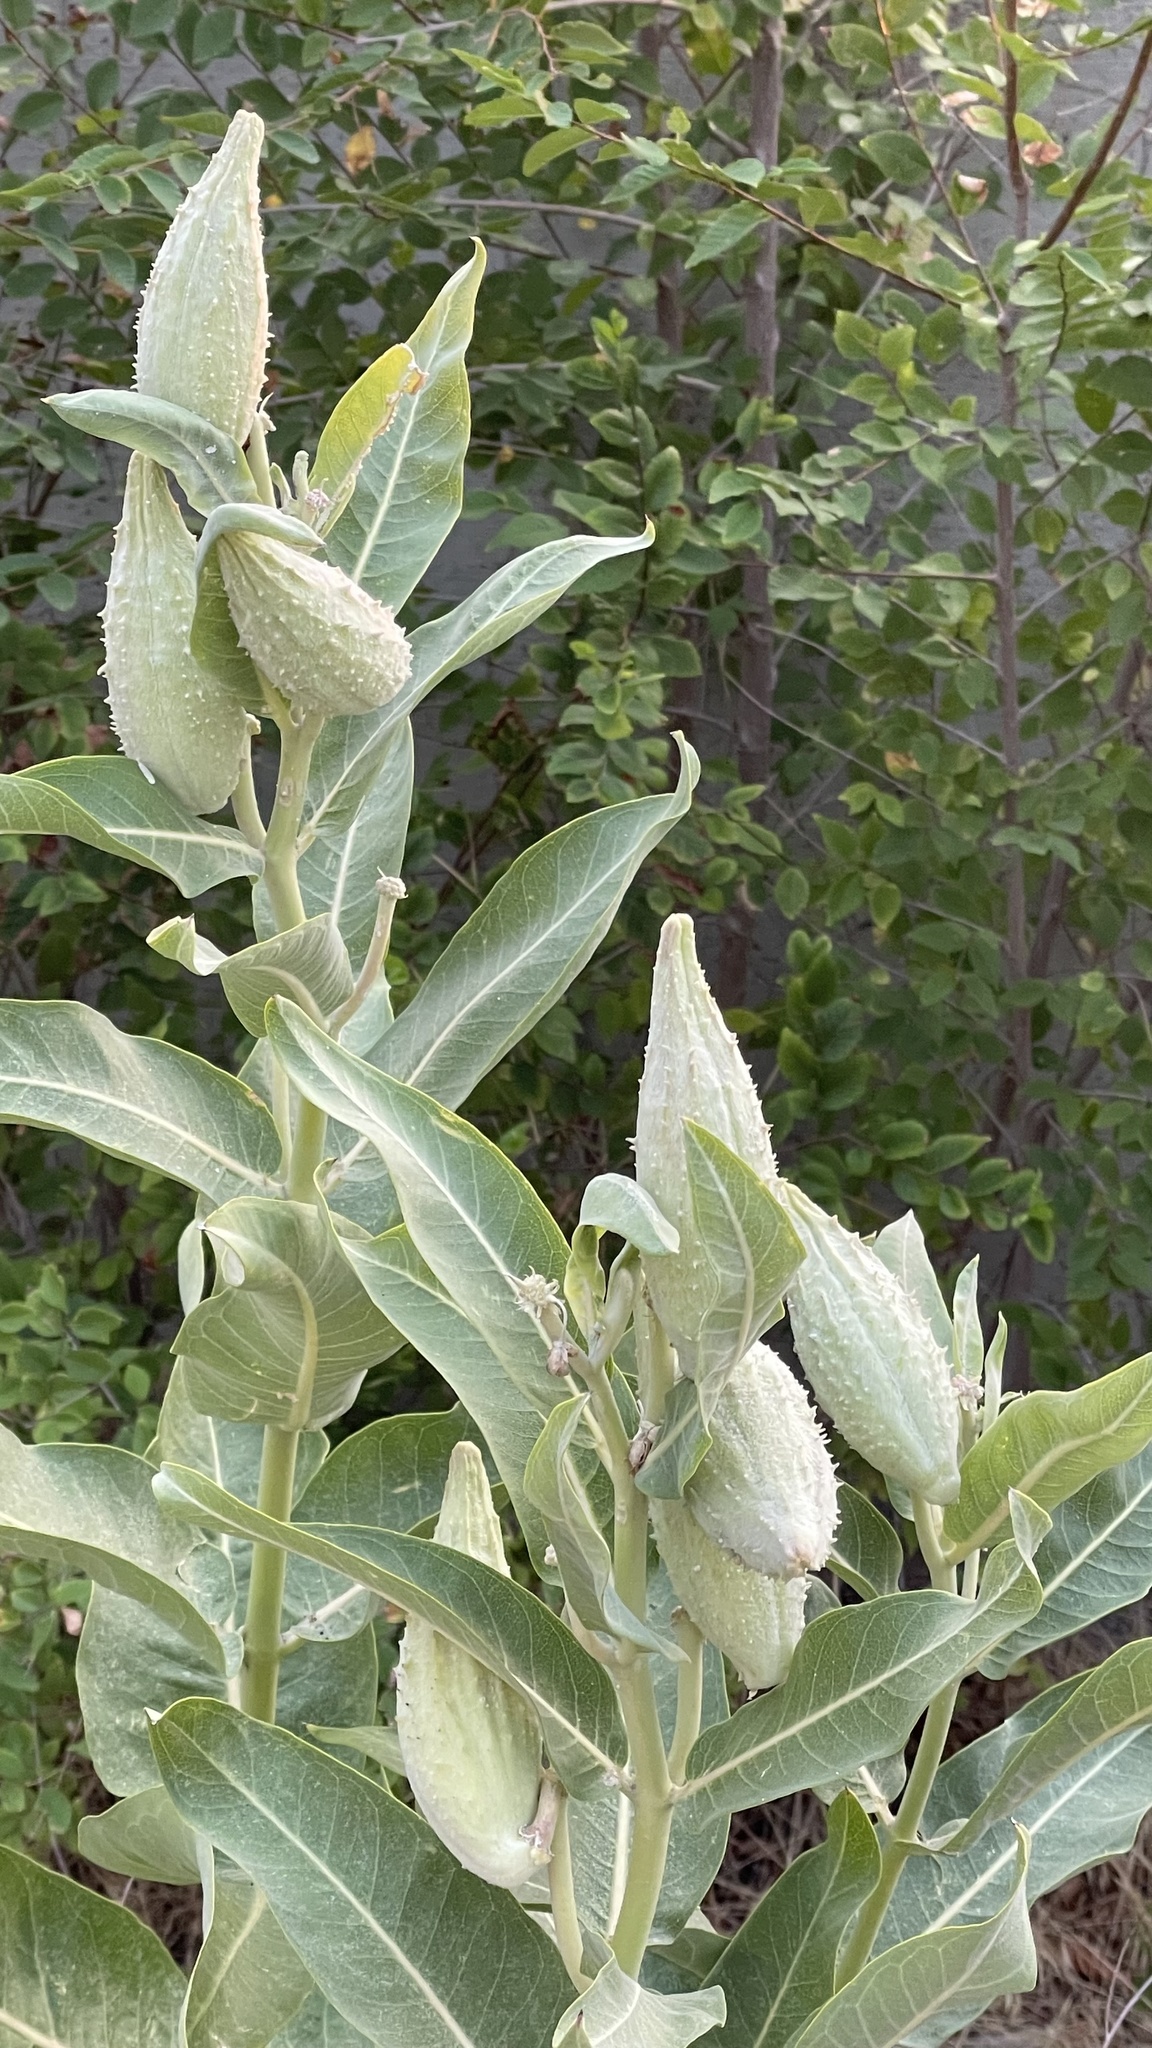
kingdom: Plantae
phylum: Tracheophyta
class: Magnoliopsida
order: Gentianales
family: Apocynaceae
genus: Asclepias
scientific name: Asclepias speciosa
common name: Showy milkweed
